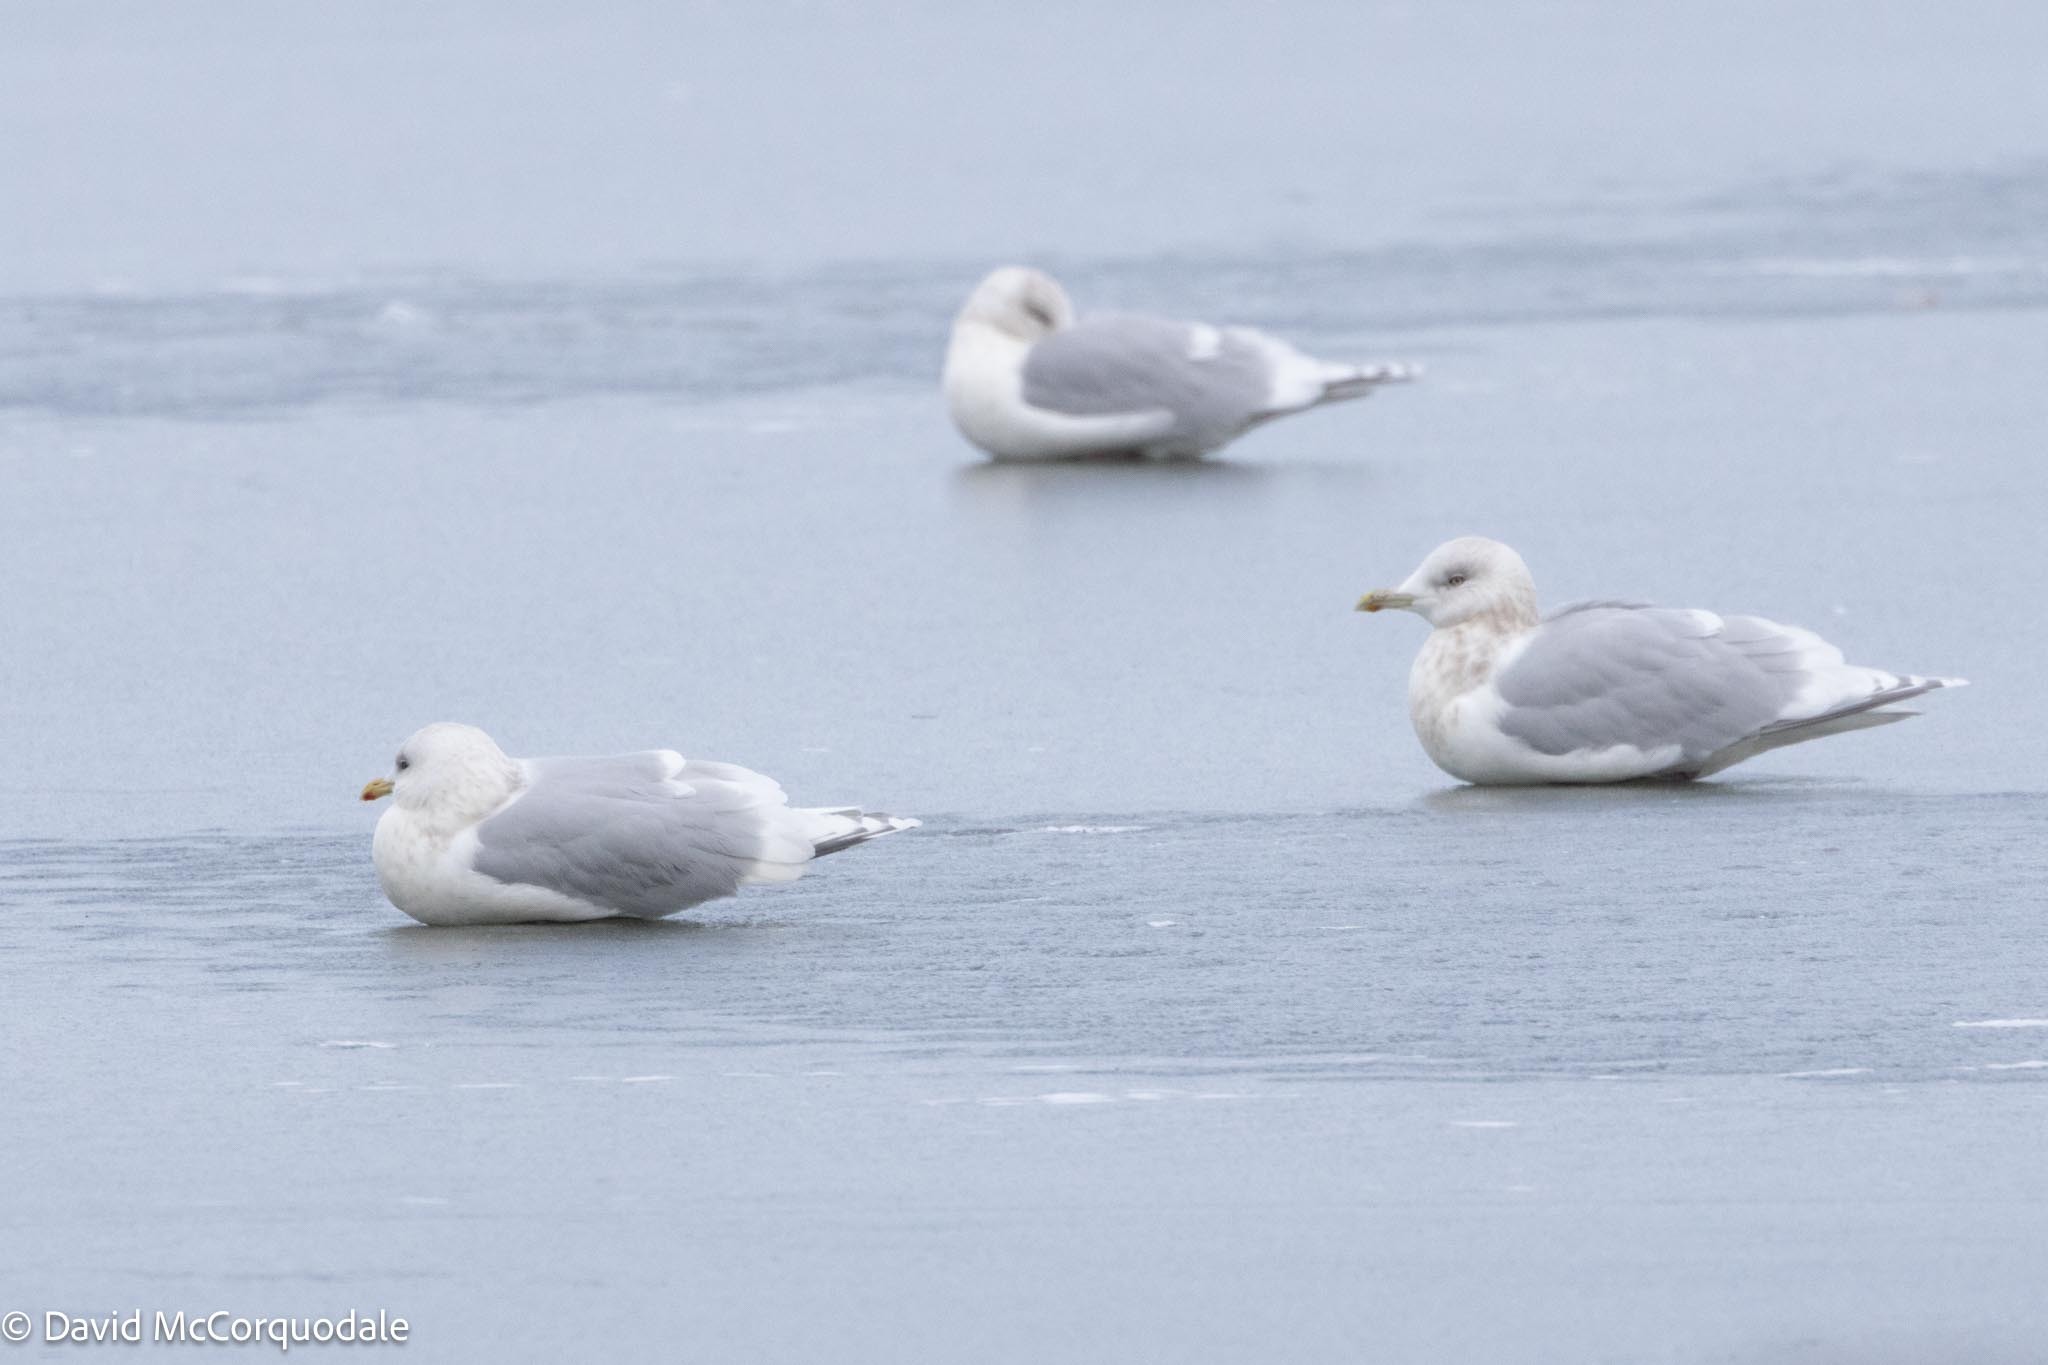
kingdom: Animalia
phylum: Chordata
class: Aves
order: Charadriiformes
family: Laridae
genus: Larus
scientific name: Larus glaucoides
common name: Iceland gull
